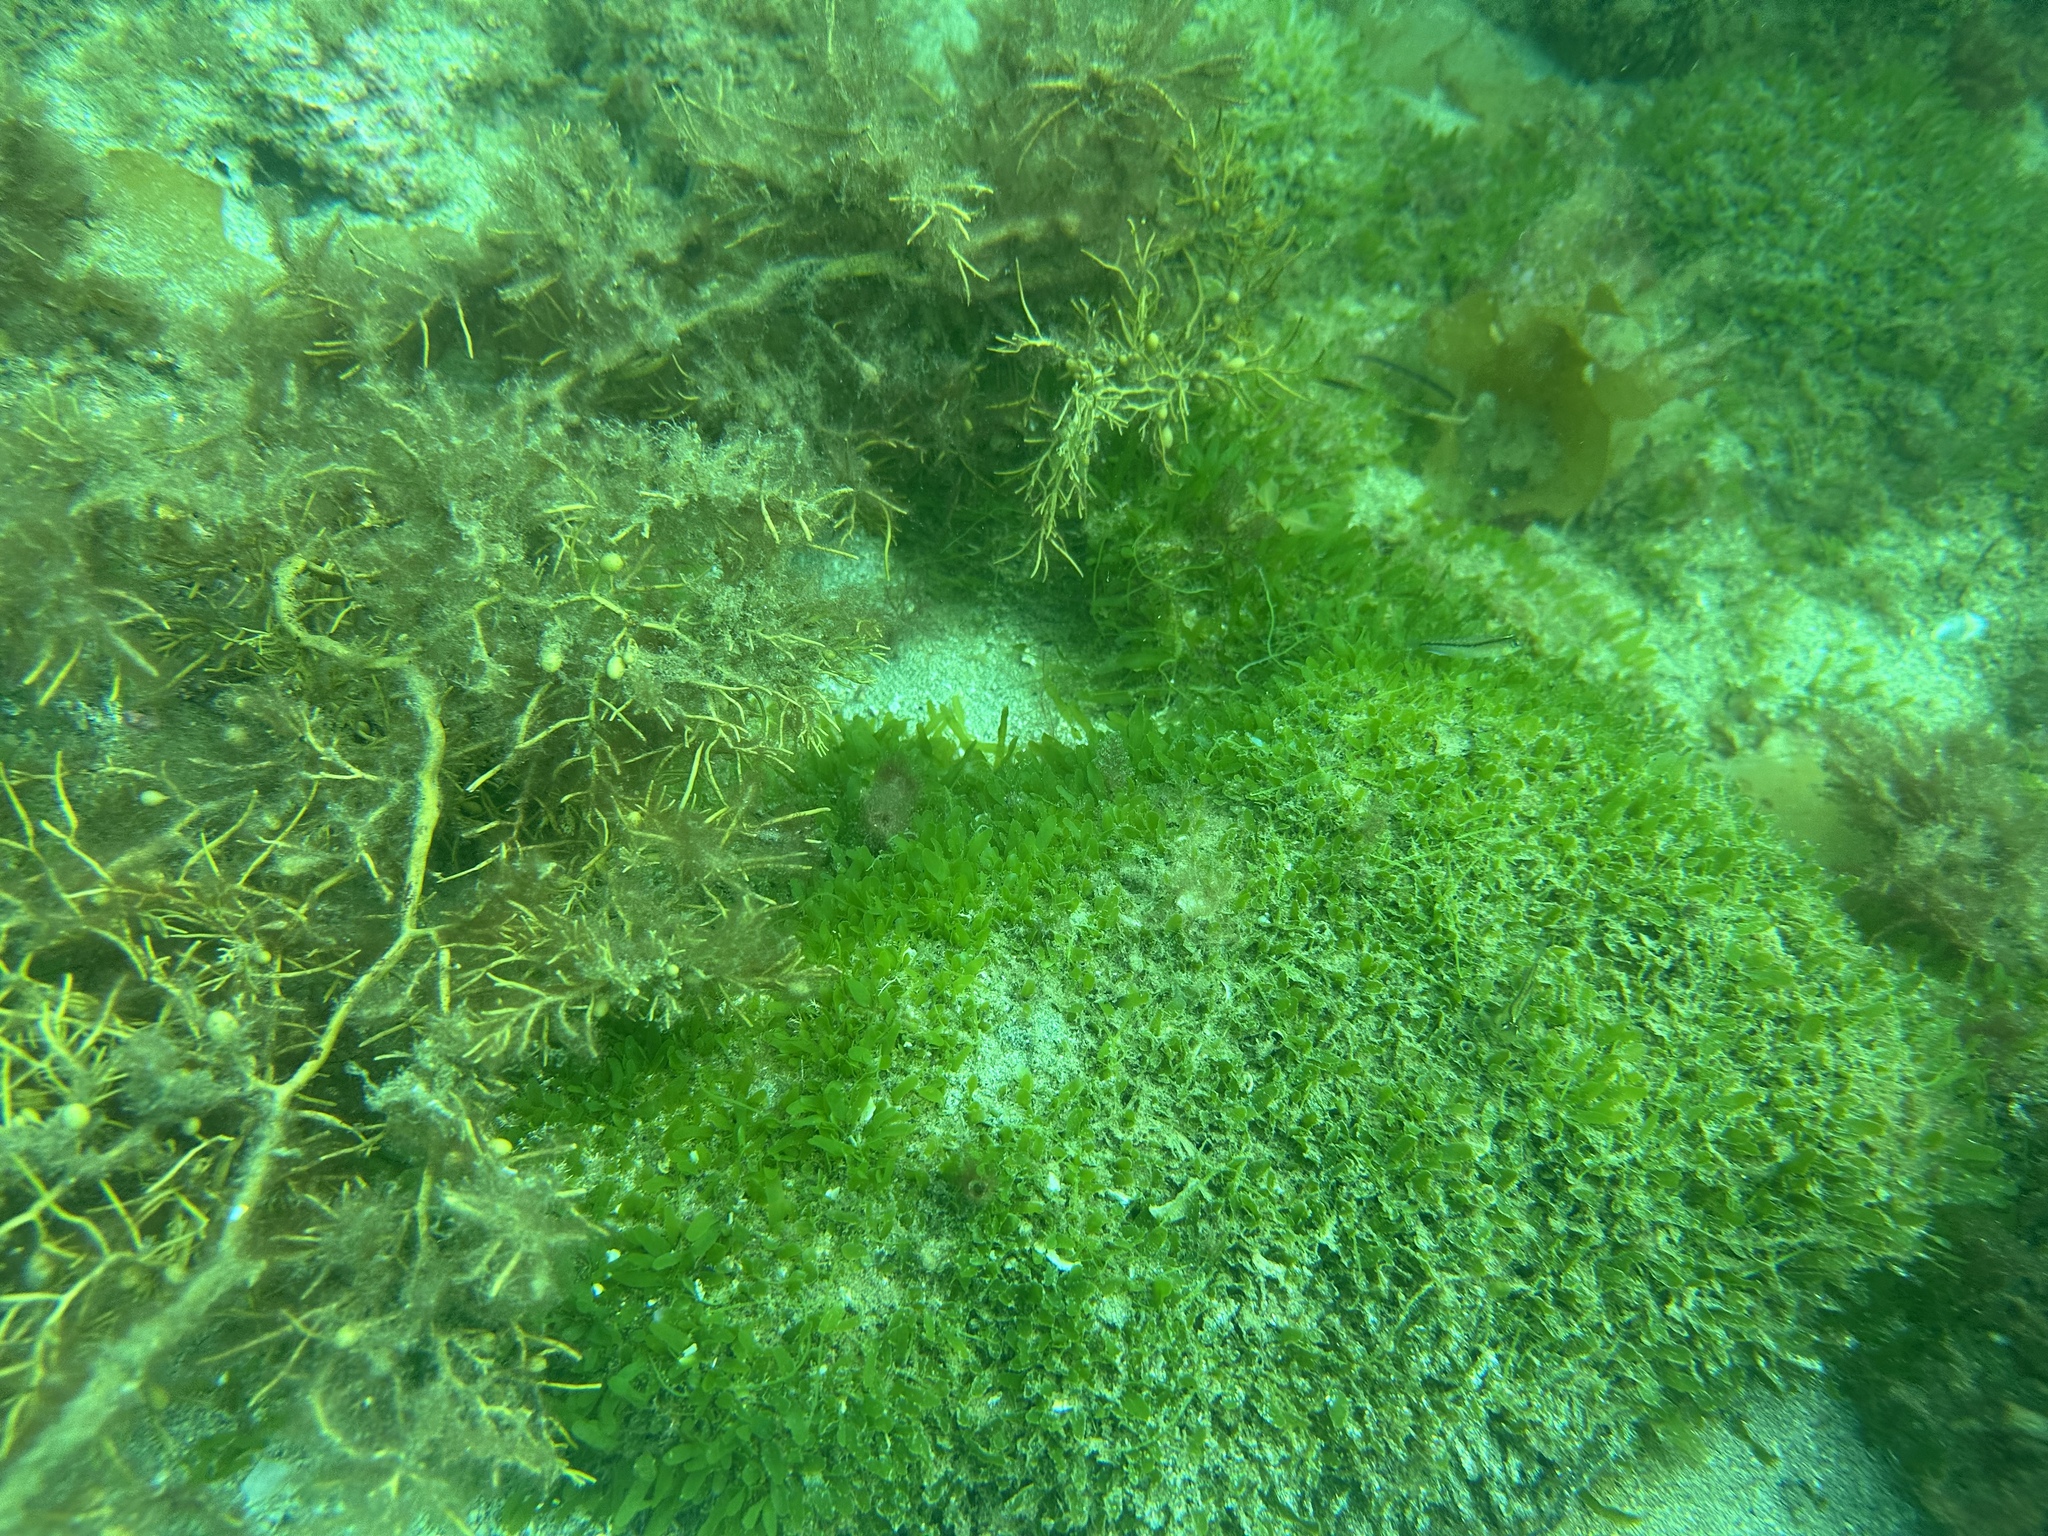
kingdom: Plantae
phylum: Chlorophyta
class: Ulvophyceae
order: Bryopsidales
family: Caulerpaceae
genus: Caulerpa
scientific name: Caulerpa brachypus
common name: Macroalgae
